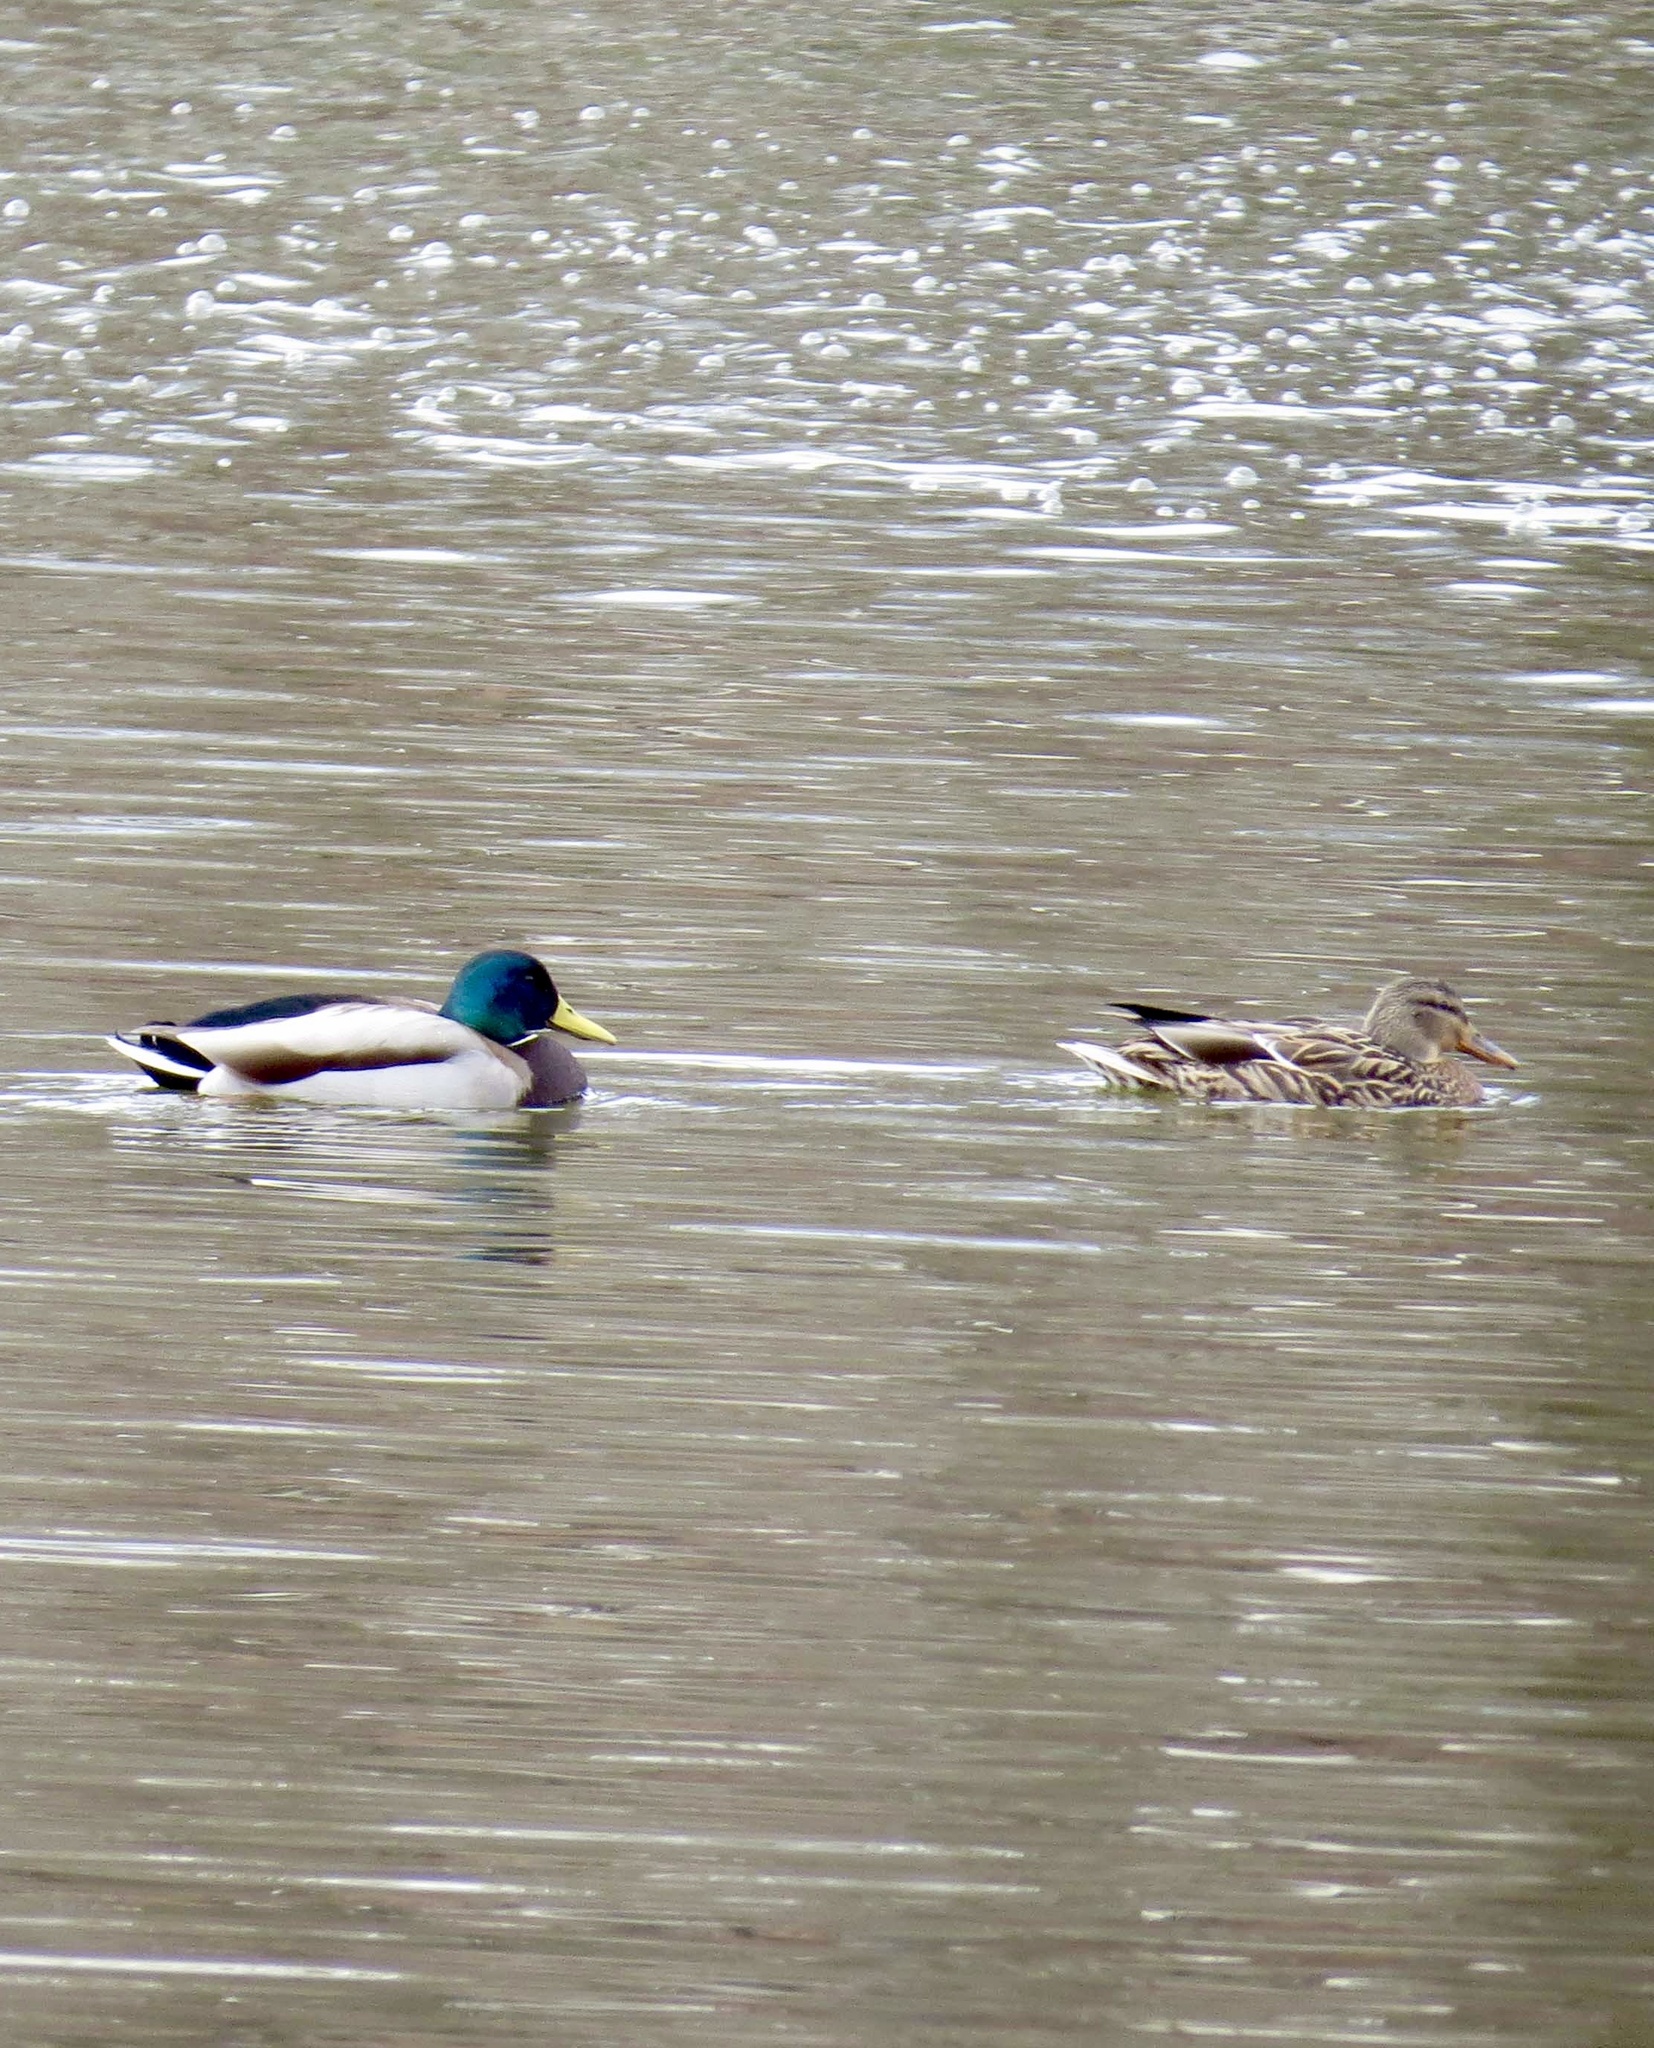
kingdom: Animalia
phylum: Chordata
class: Aves
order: Anseriformes
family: Anatidae
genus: Anas
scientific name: Anas platyrhynchos
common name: Mallard
